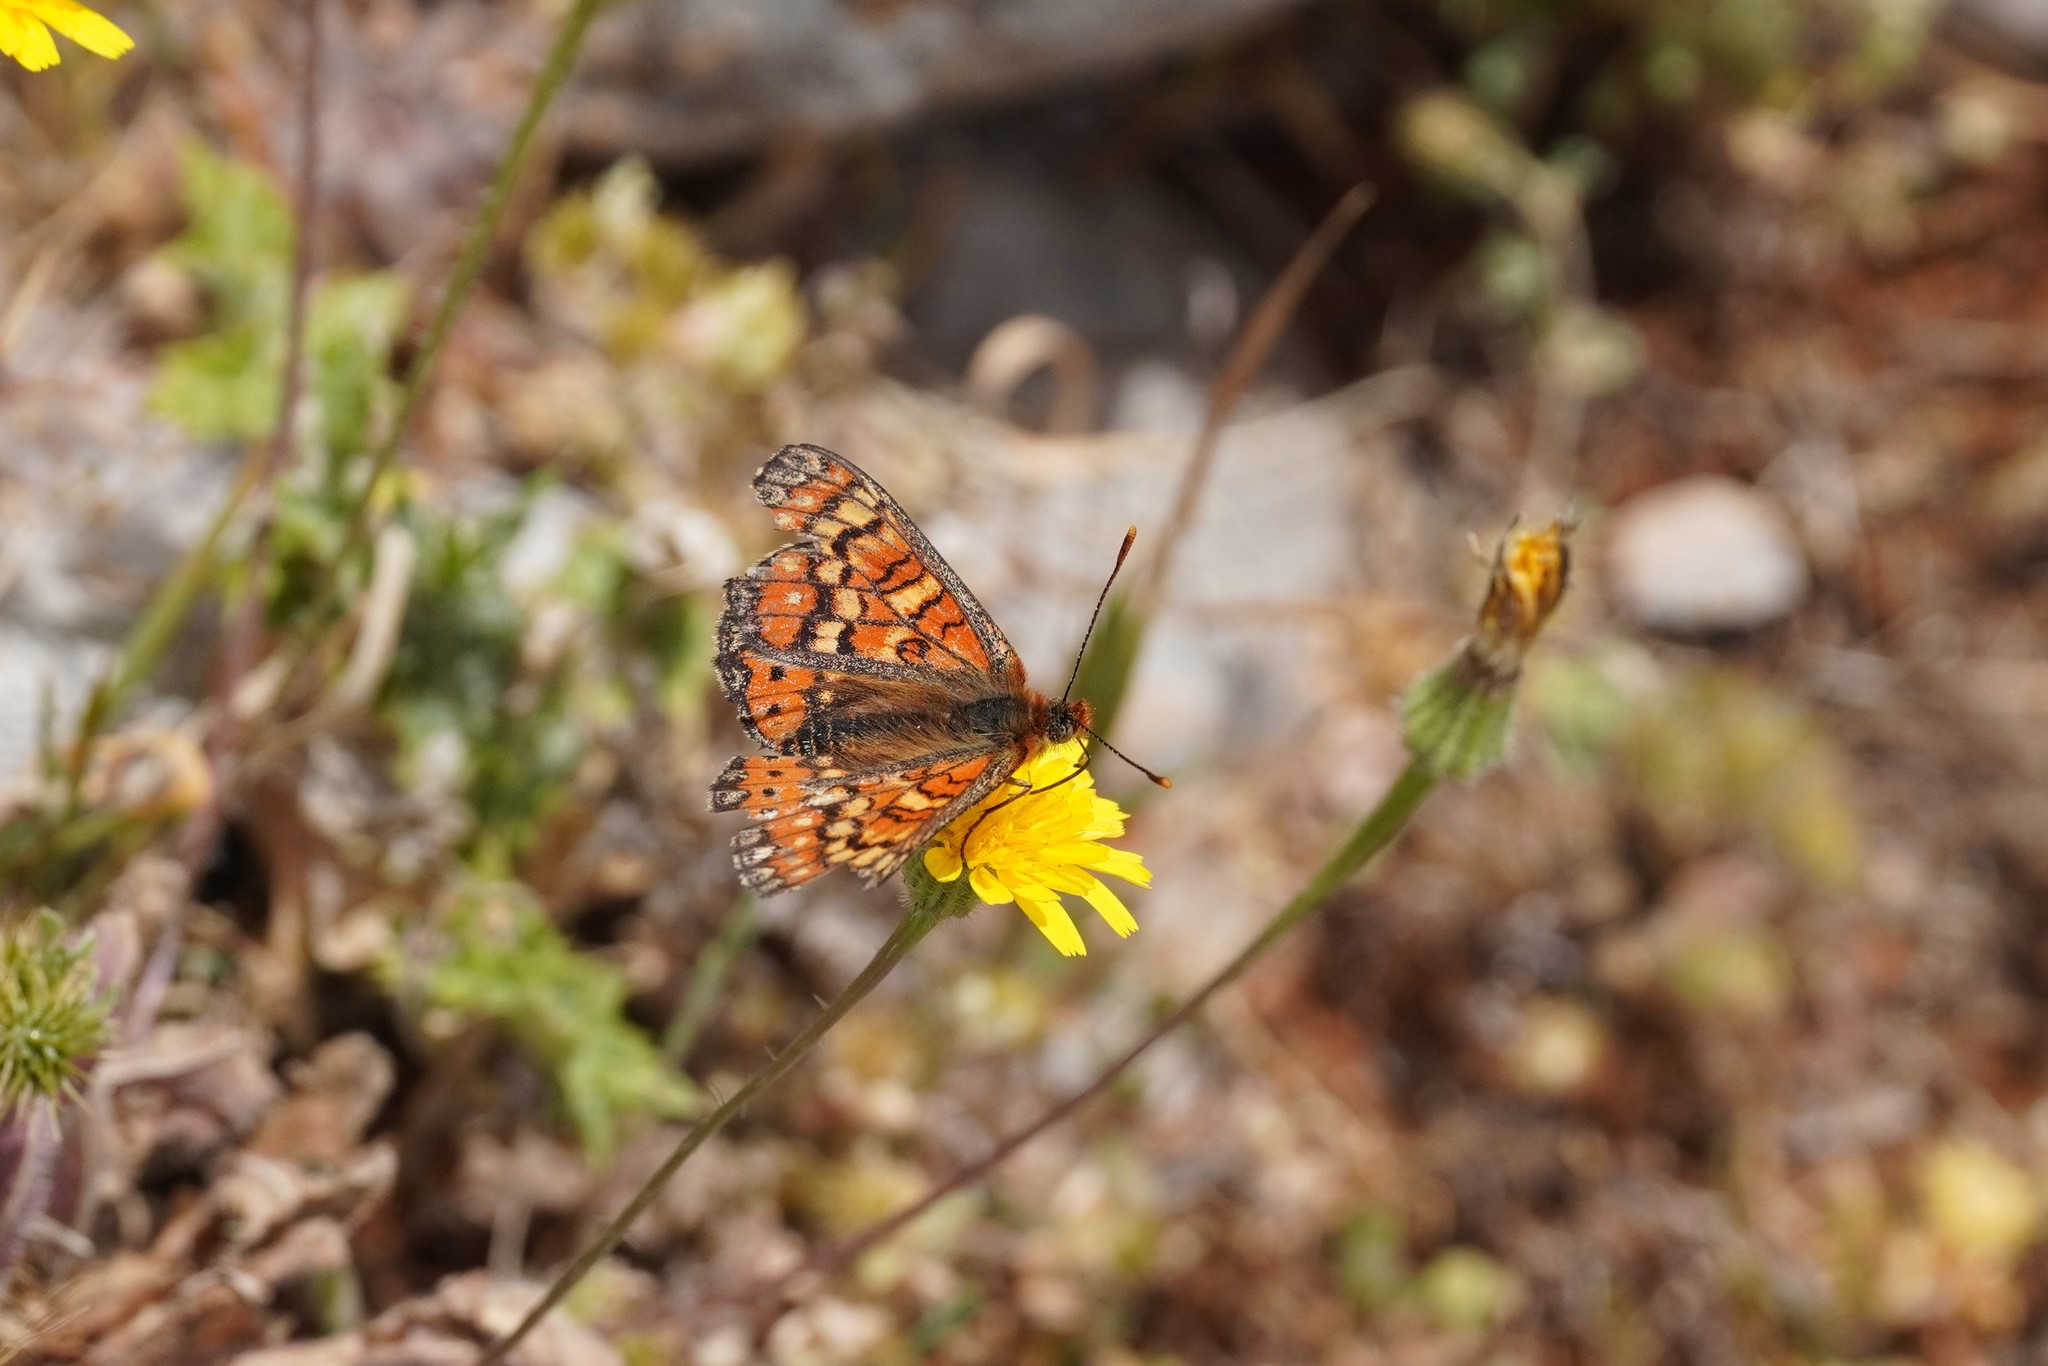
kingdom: Animalia
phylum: Arthropoda
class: Insecta
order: Lepidoptera
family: Nymphalidae
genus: Euphydryas
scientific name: Euphydryas desfontainii
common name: Spanish fritillary
